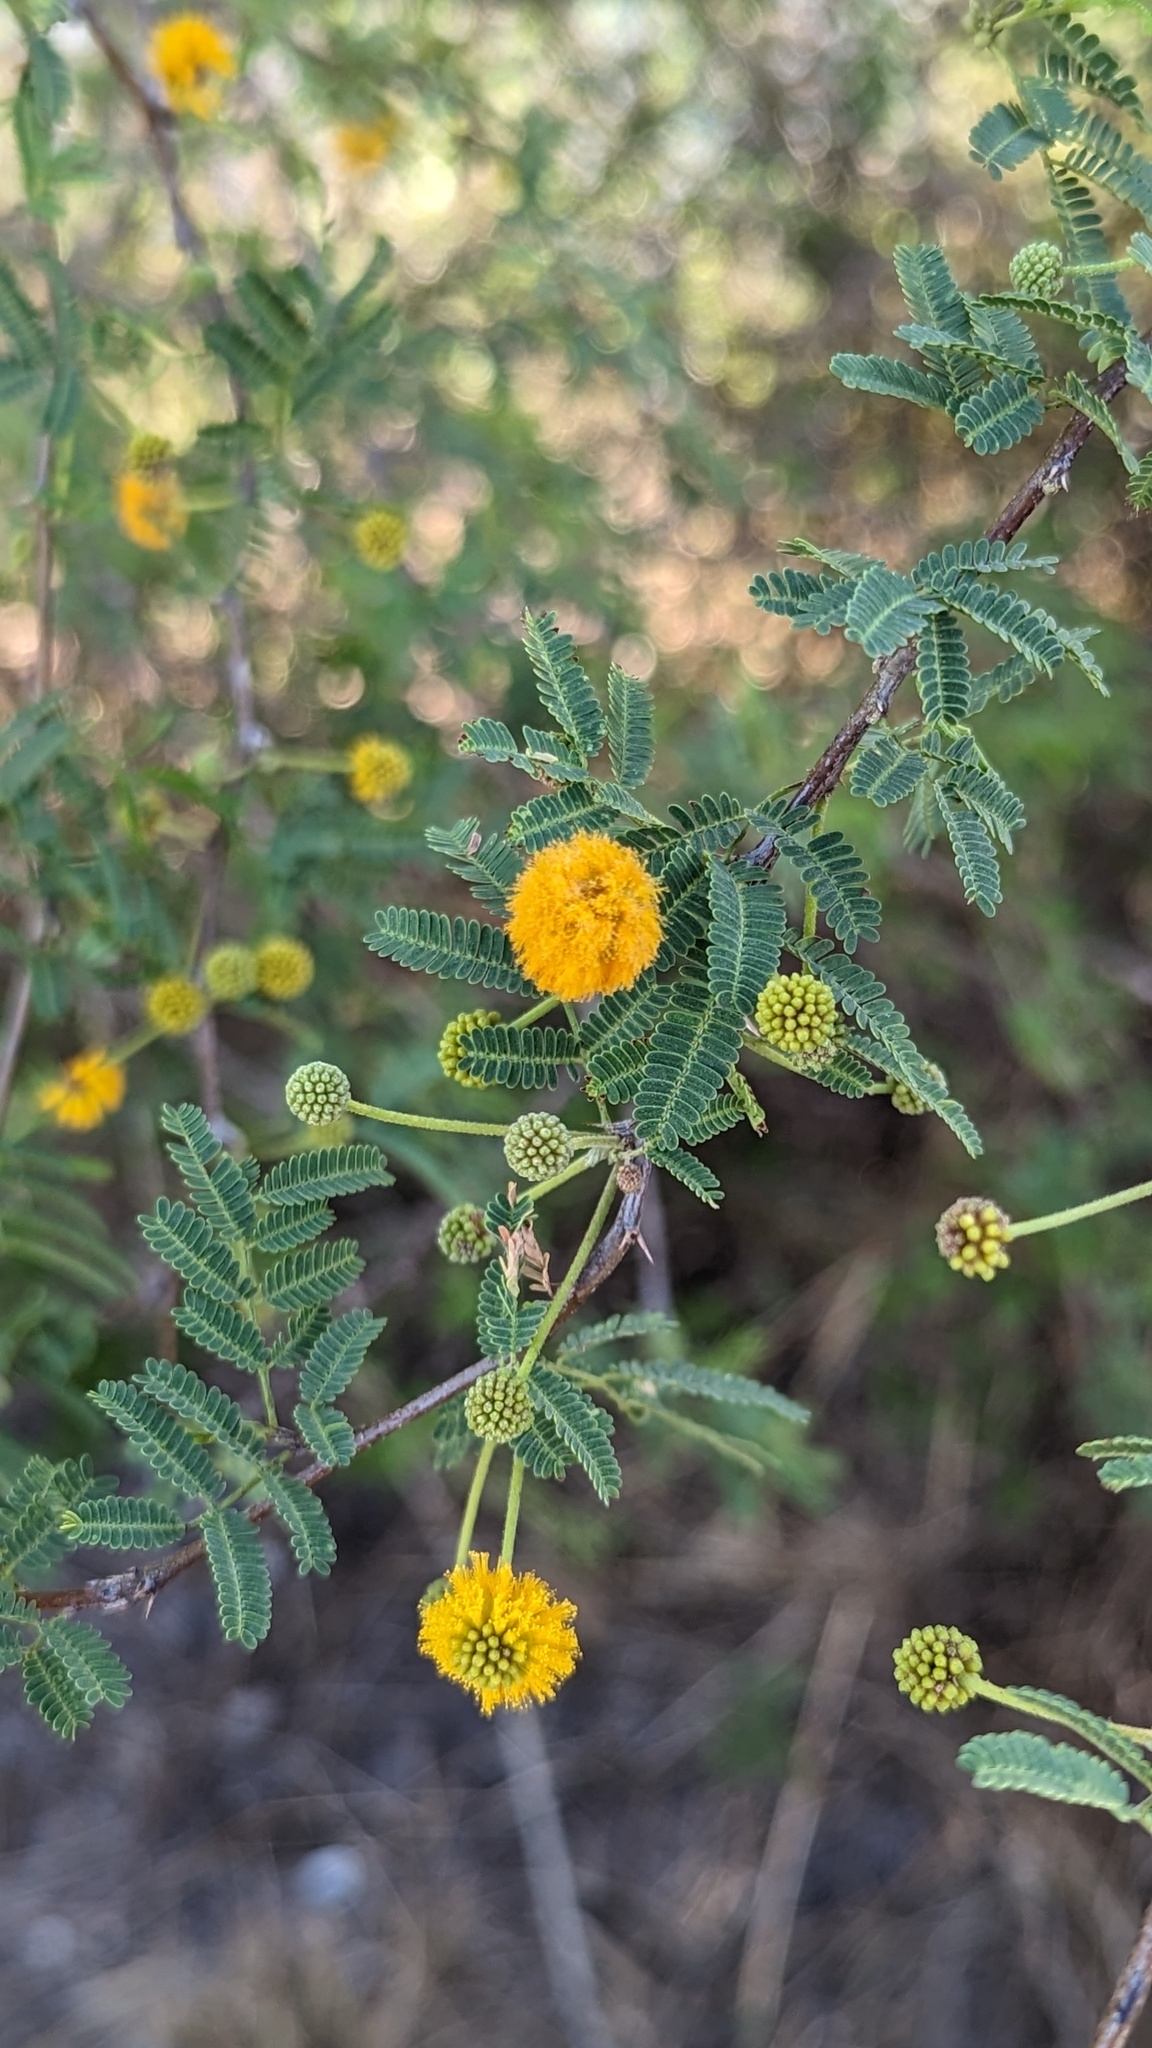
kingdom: Plantae
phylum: Tracheophyta
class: Magnoliopsida
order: Fabales
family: Fabaceae
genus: Vachellia
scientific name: Vachellia farnesiana
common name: Sweet acacia
